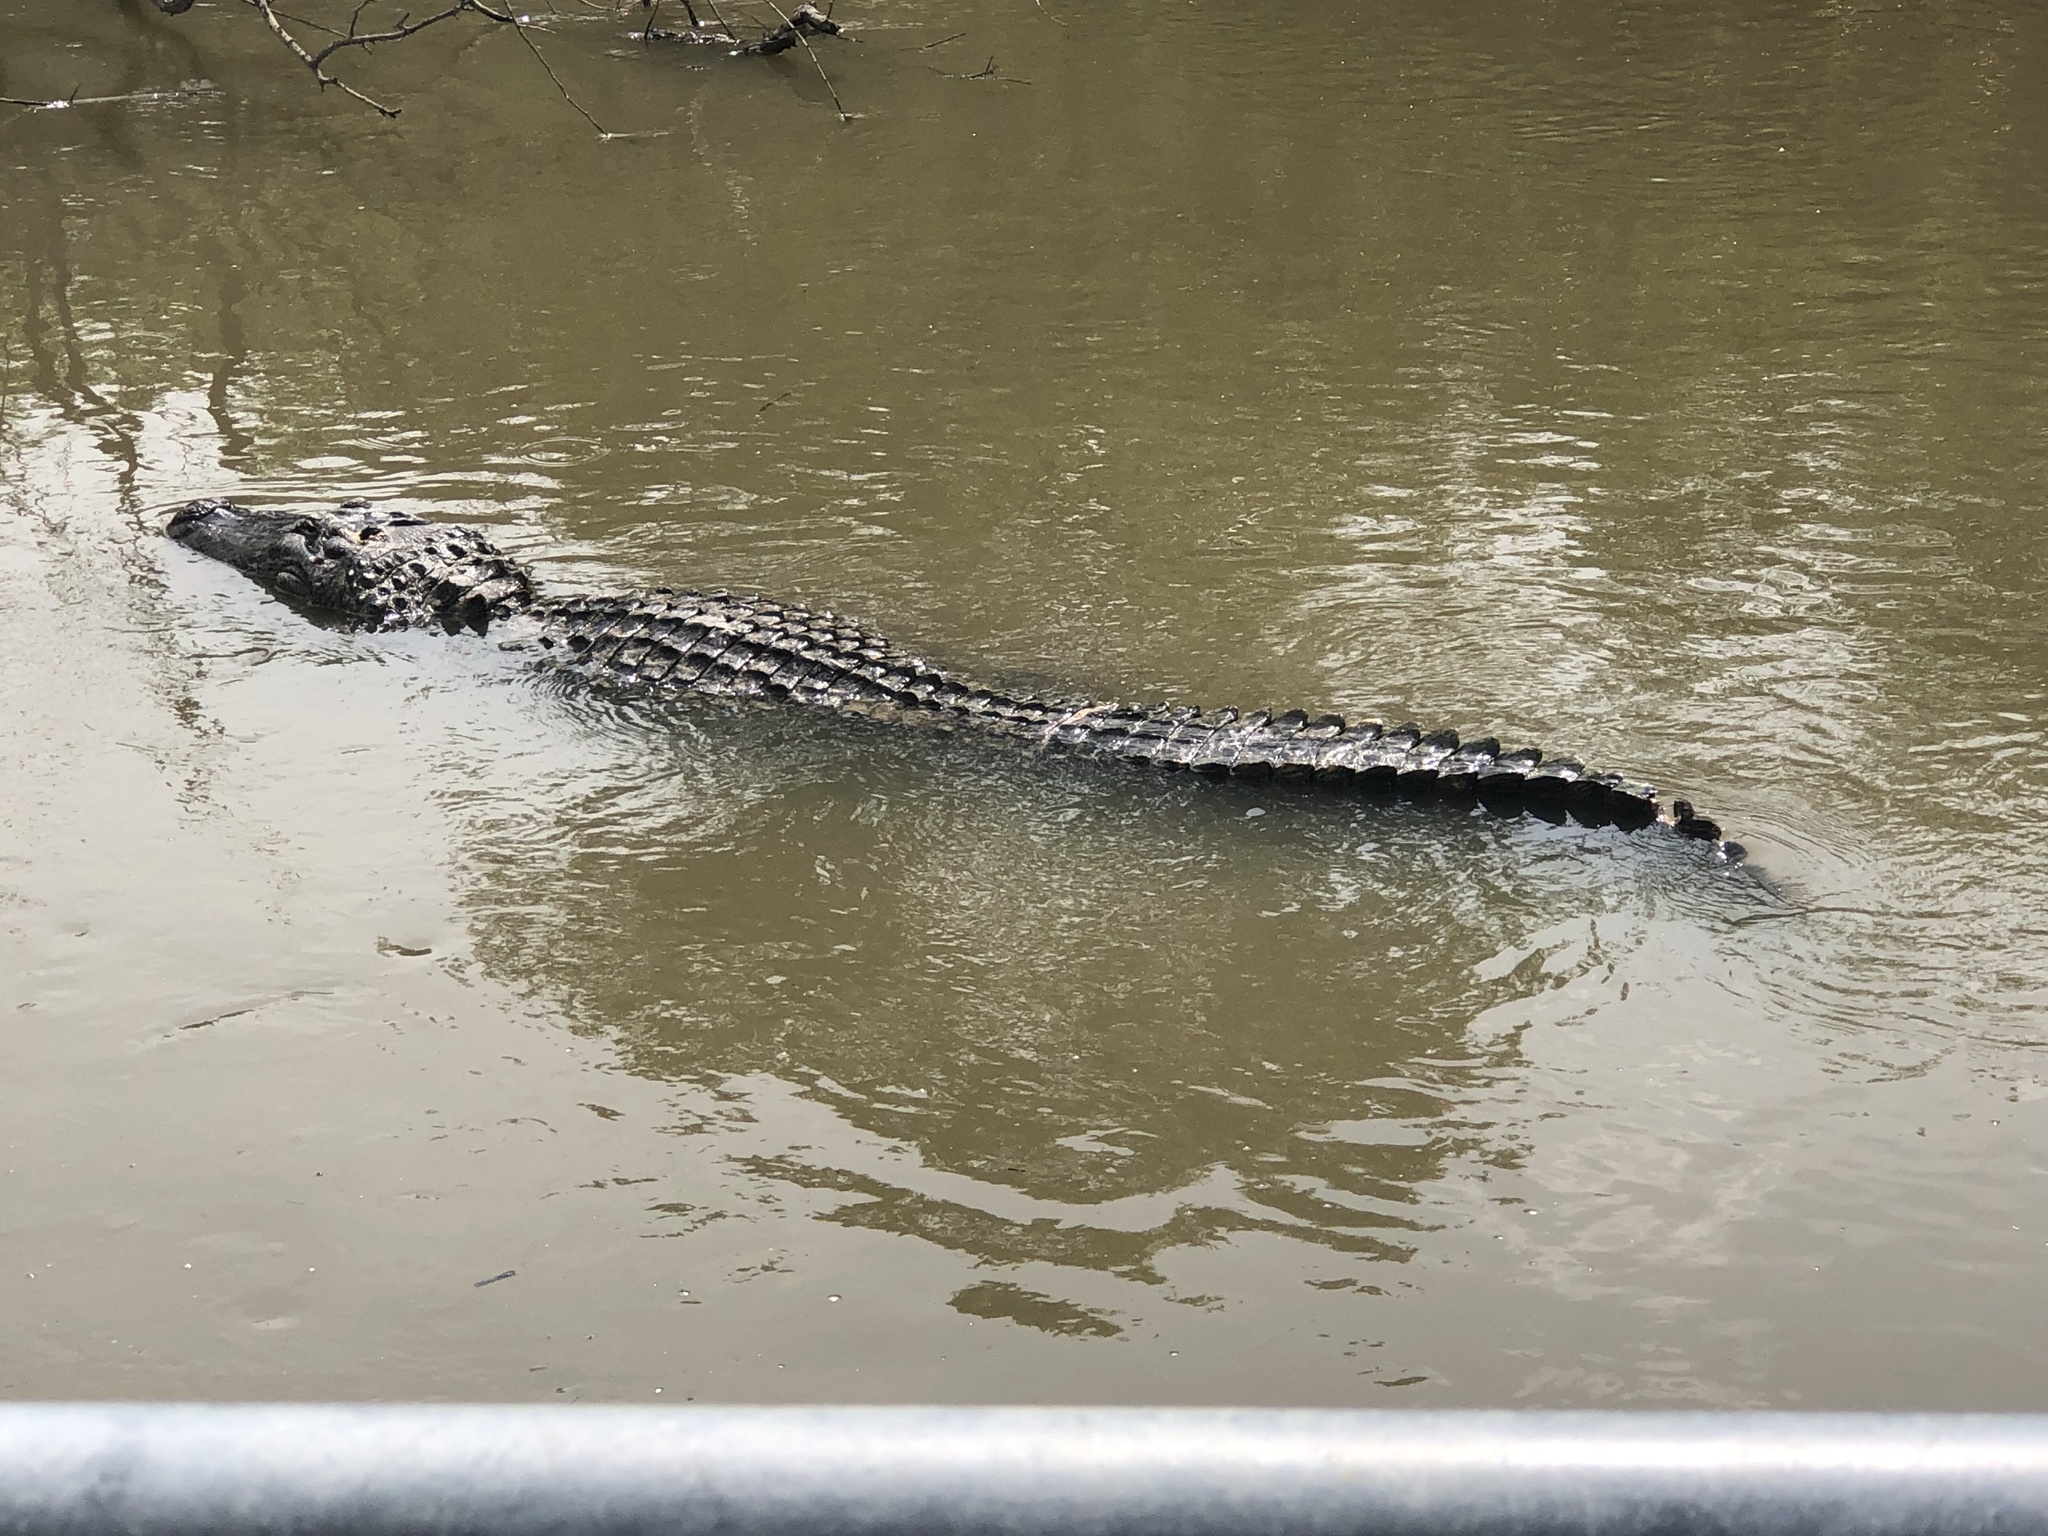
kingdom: Animalia
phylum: Chordata
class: Crocodylia
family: Alligatoridae
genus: Alligator
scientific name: Alligator mississippiensis
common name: American alligator
